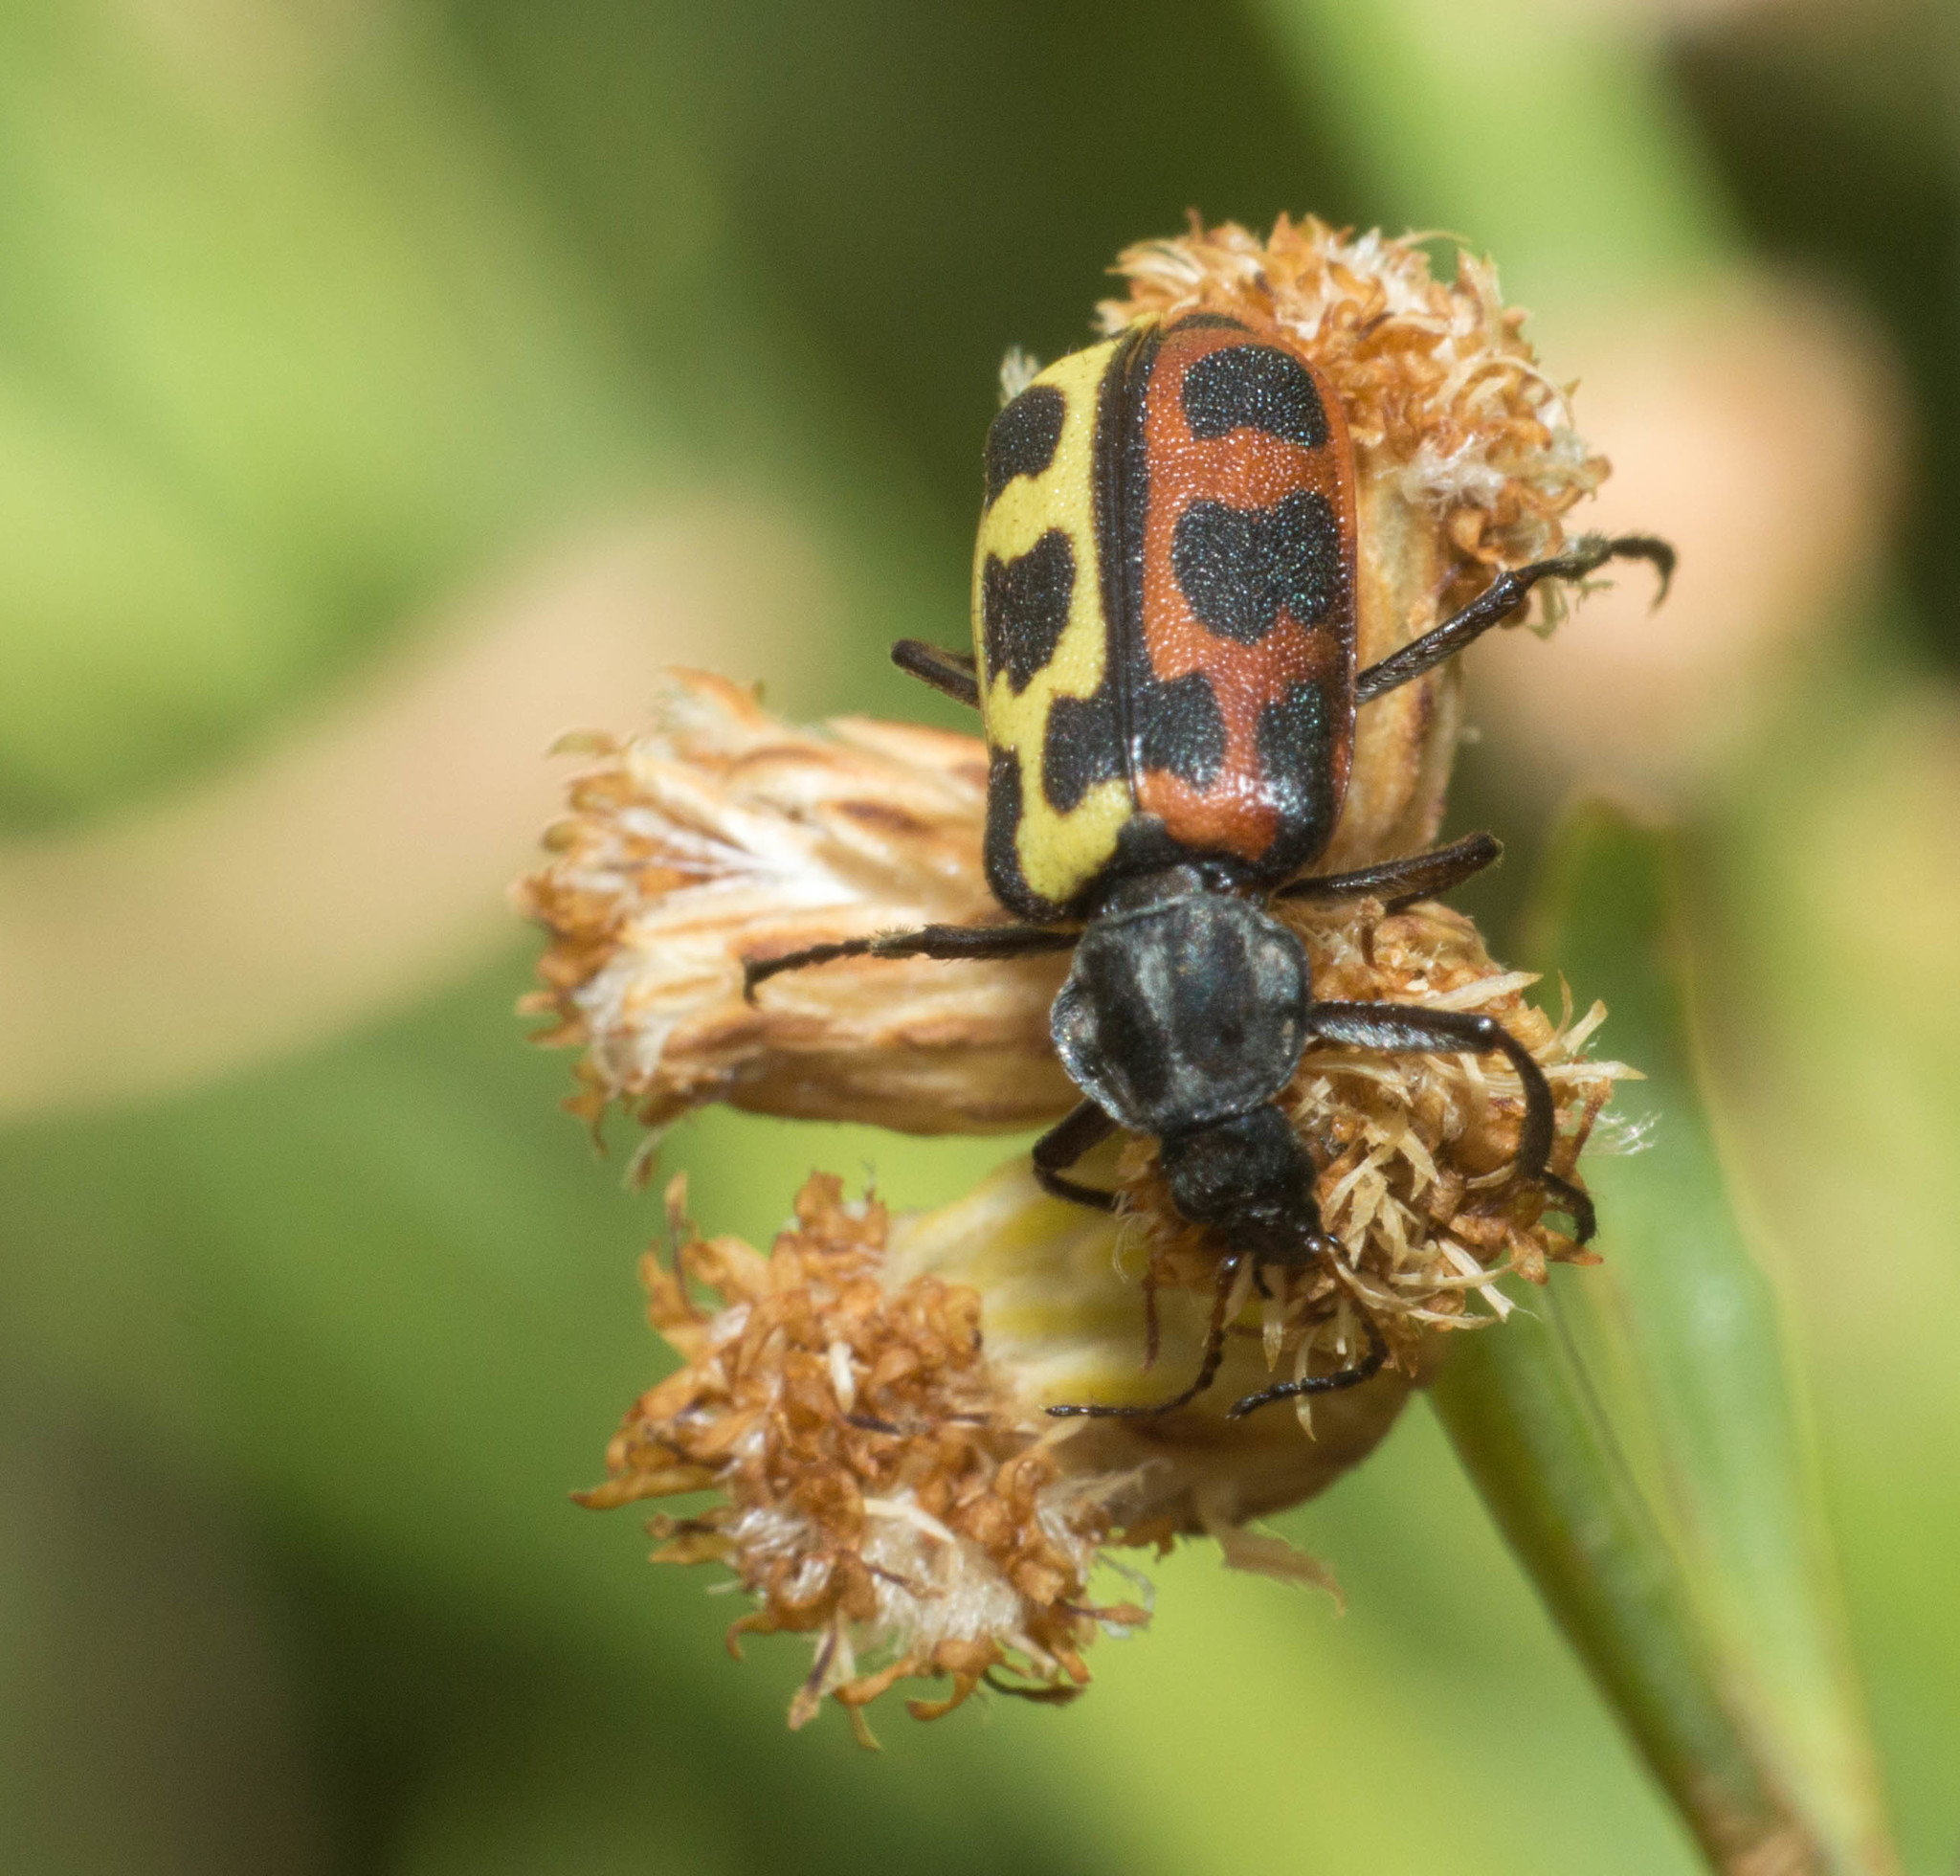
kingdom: Animalia
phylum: Arthropoda
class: Insecta
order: Coleoptera
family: Melyridae
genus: Astylus
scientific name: Astylus atromaculatus
